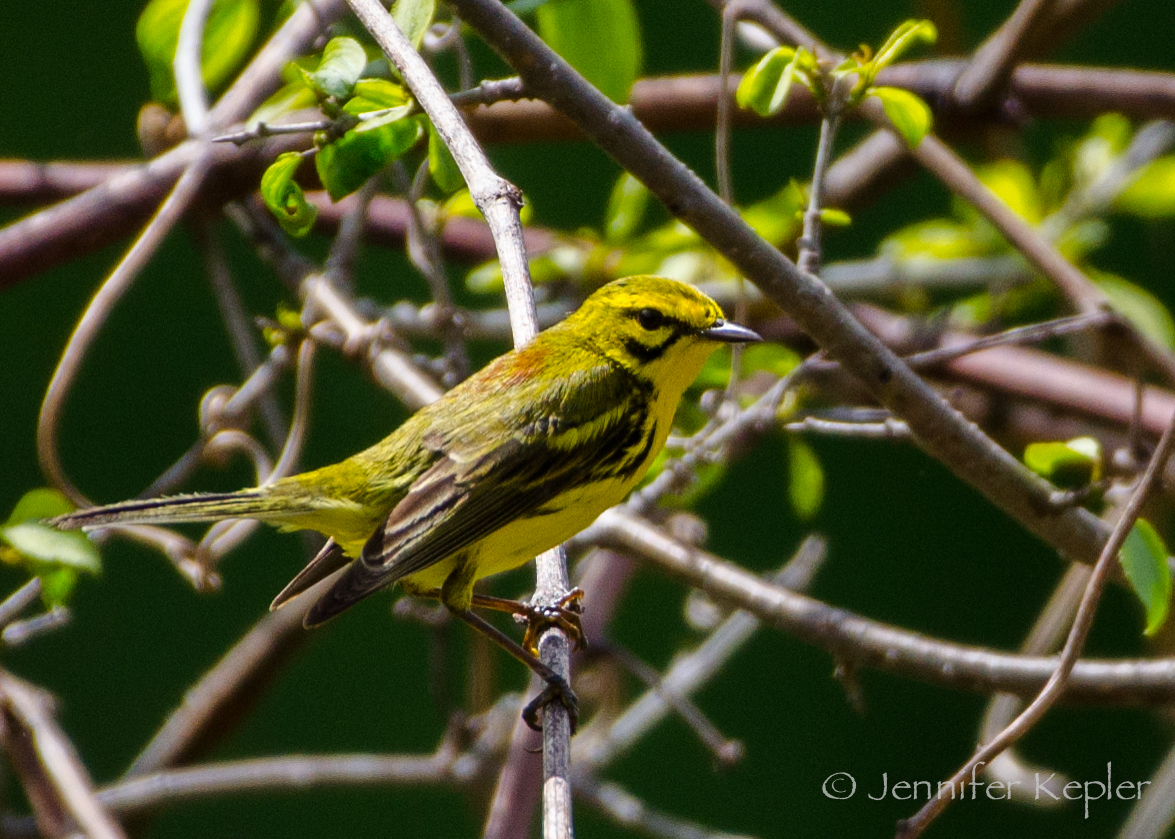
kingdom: Animalia
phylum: Chordata
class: Aves
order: Passeriformes
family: Parulidae
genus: Setophaga
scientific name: Setophaga discolor
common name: Prairie warbler
